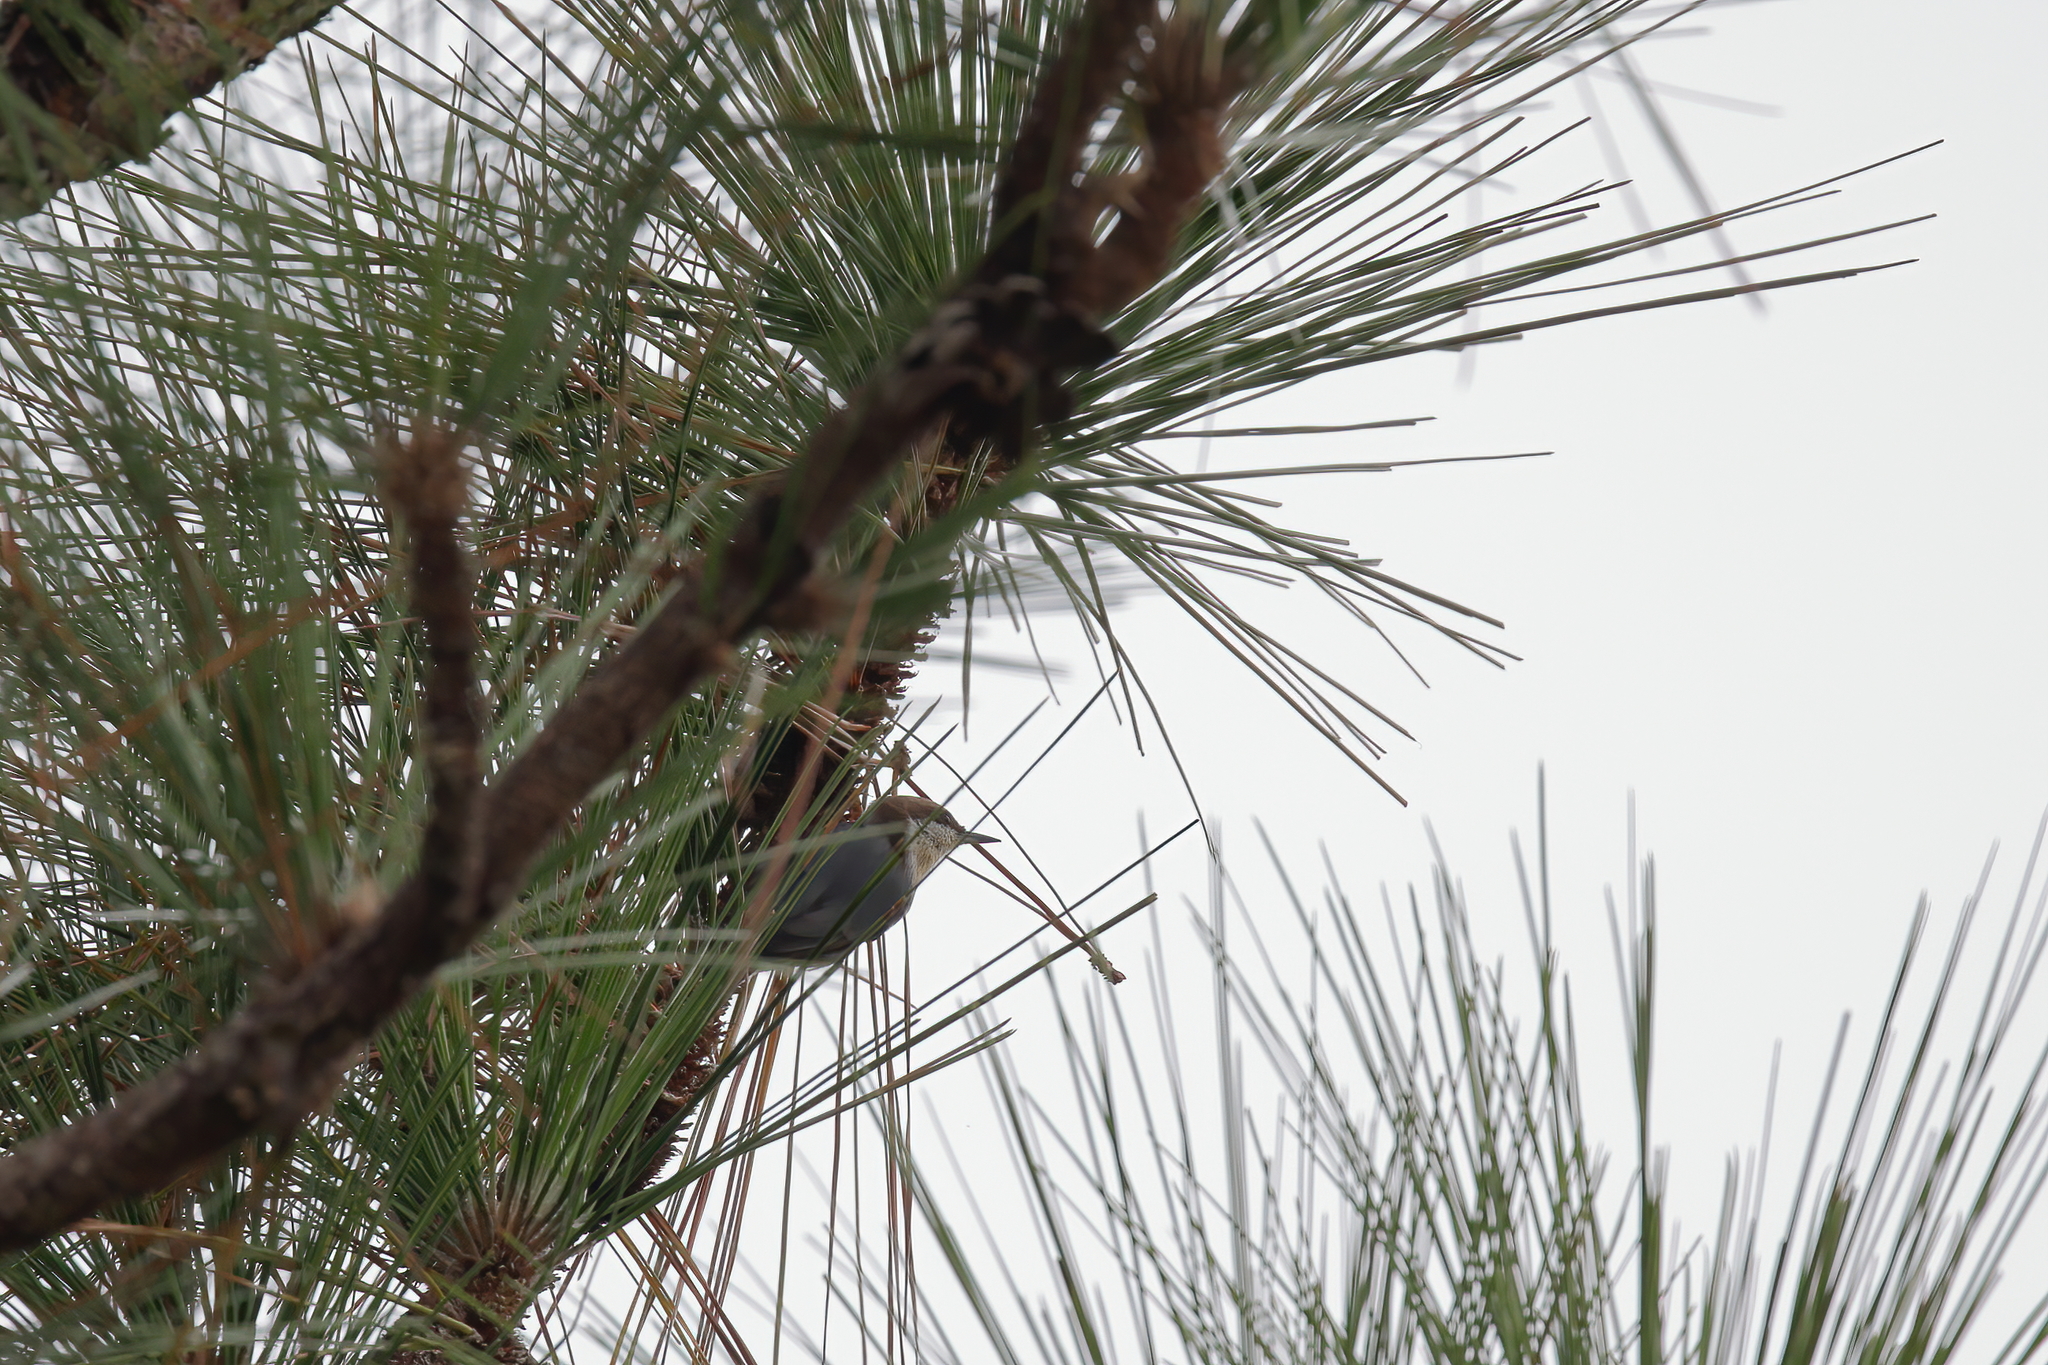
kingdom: Animalia
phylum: Chordata
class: Aves
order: Passeriformes
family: Sittidae
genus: Sitta
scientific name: Sitta pusilla
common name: Brown-headed nuthatch
